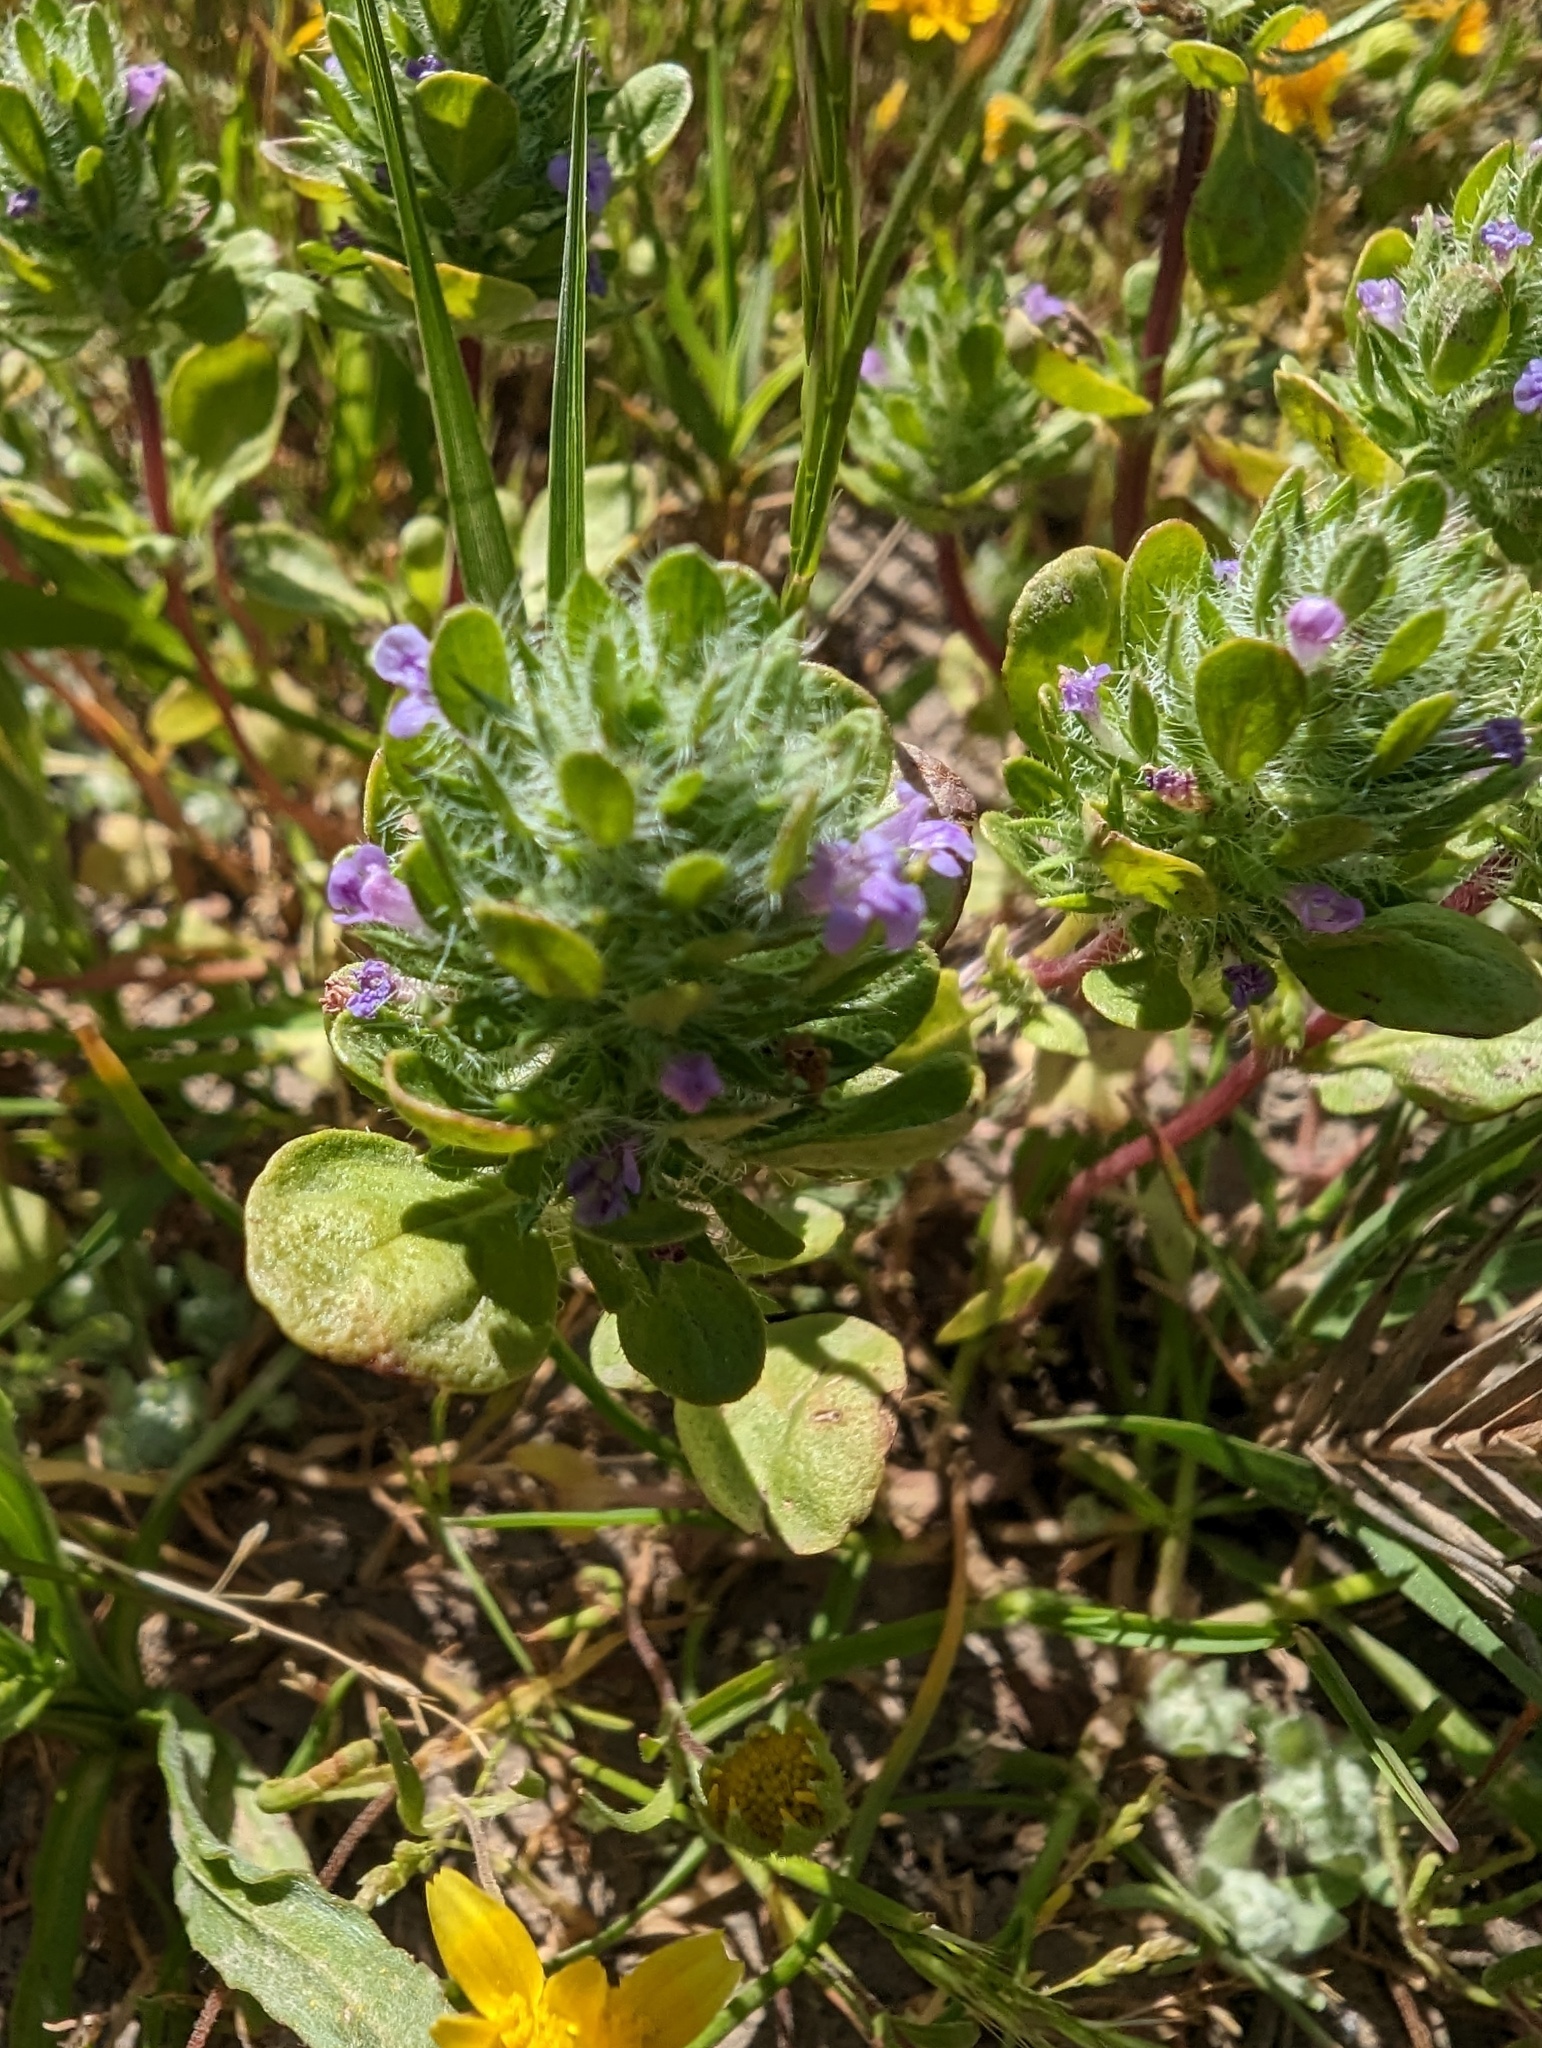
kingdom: Plantae
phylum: Tracheophyta
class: Magnoliopsida
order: Lamiales
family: Lamiaceae
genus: Pogogyne
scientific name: Pogogyne zizyphoroides
